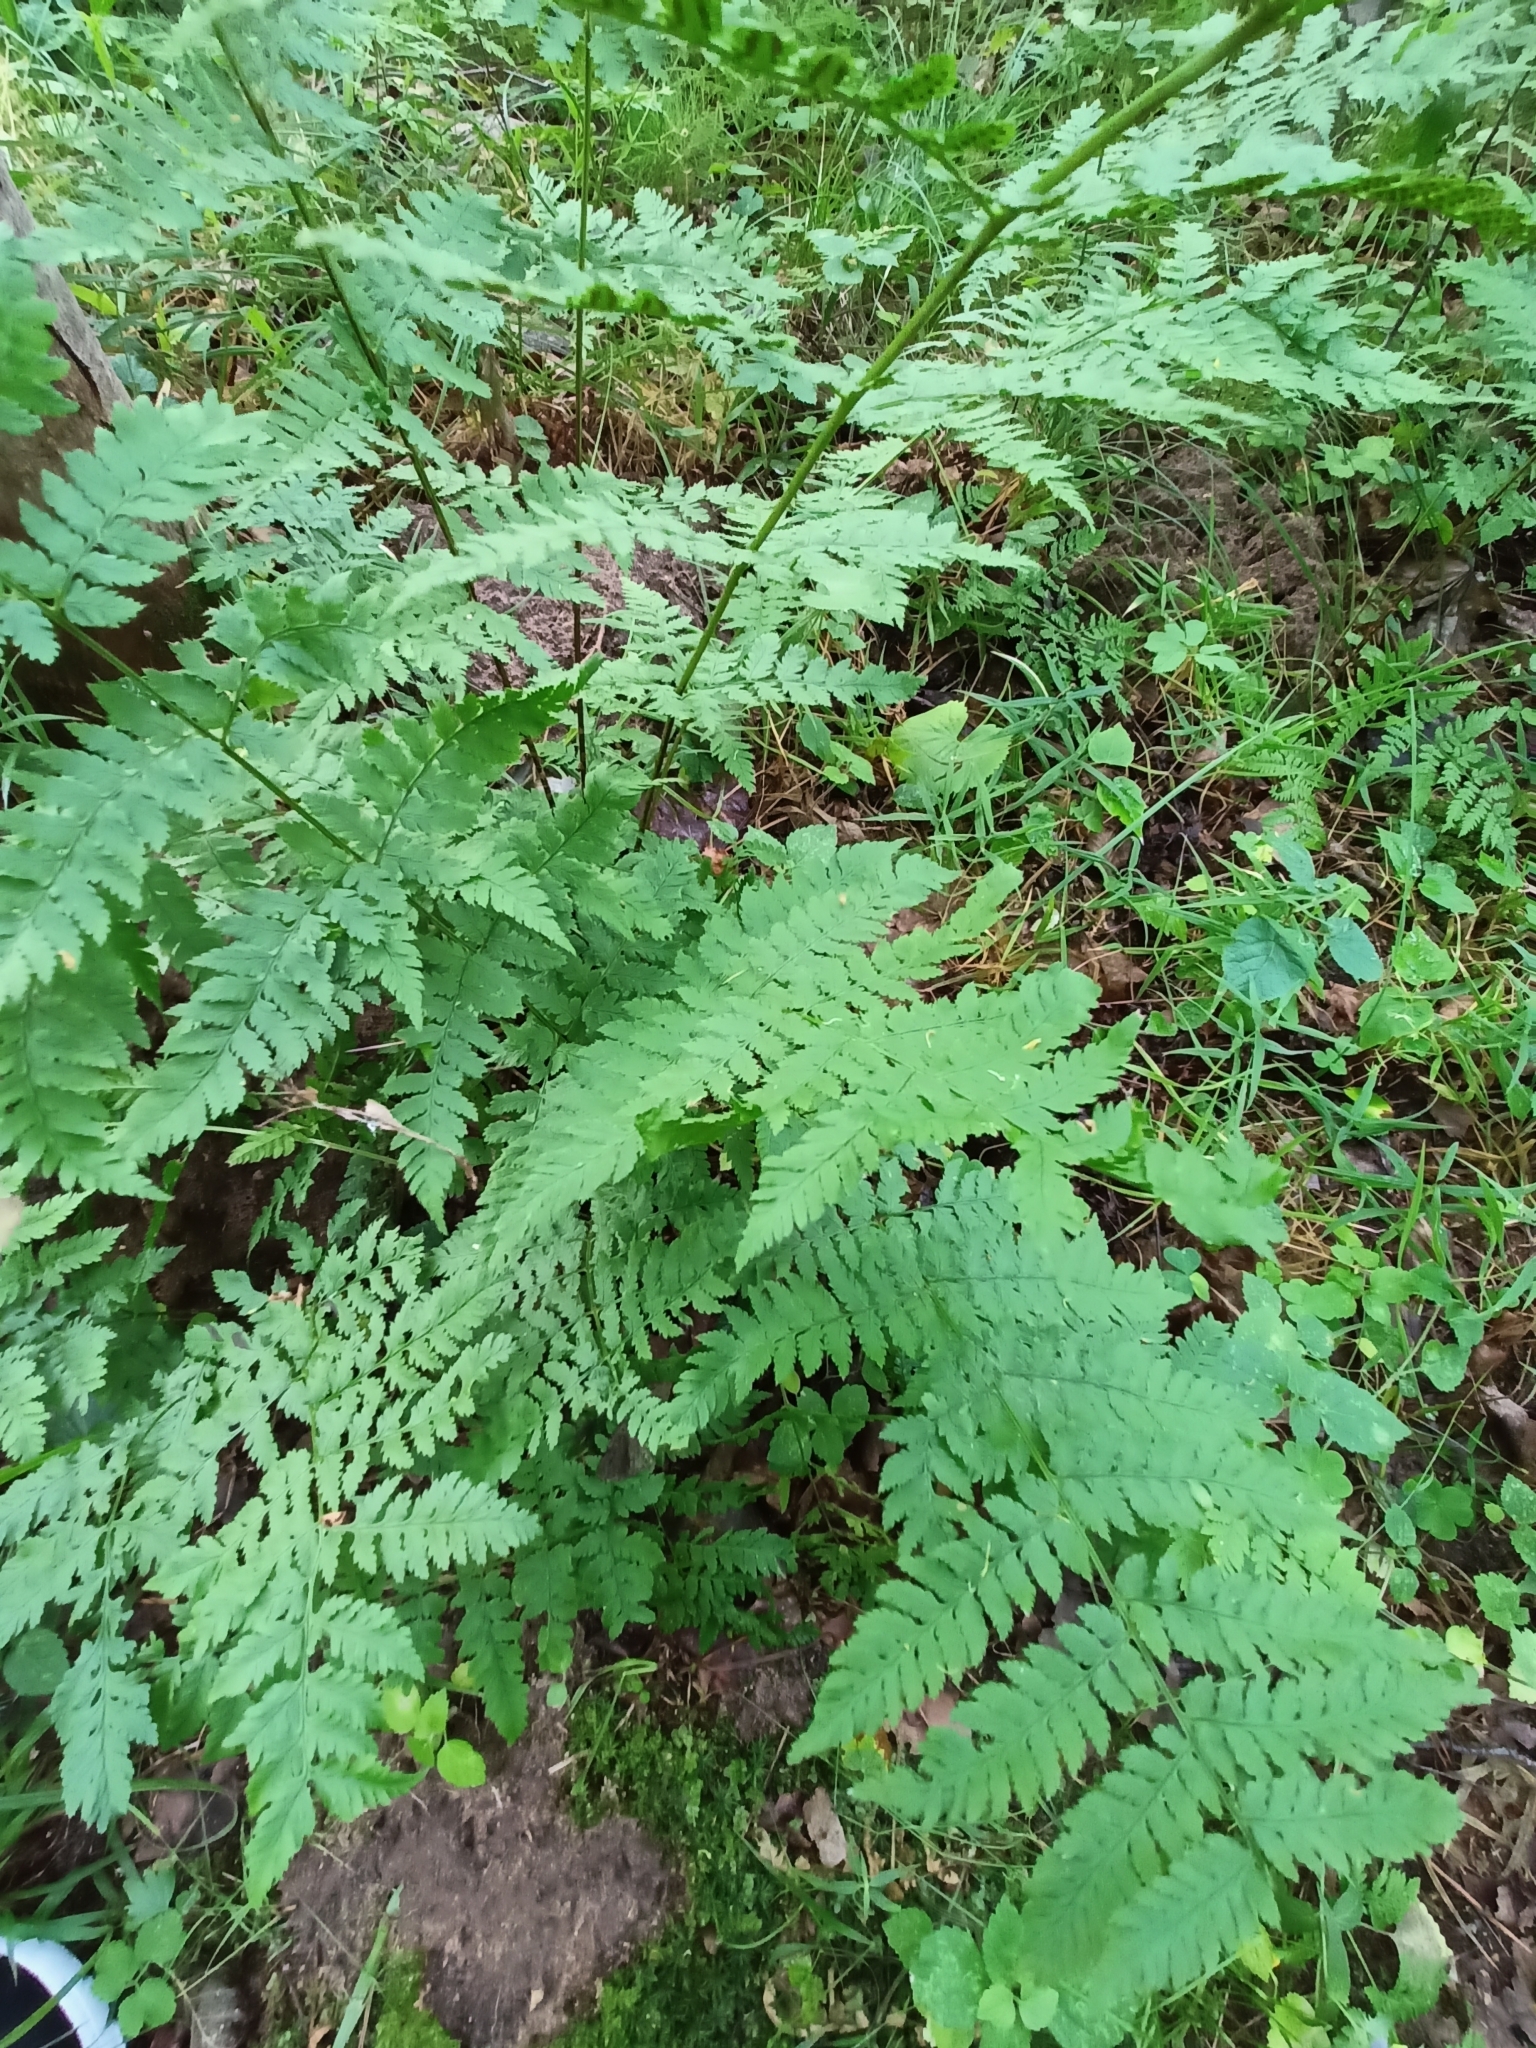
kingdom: Plantae
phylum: Tracheophyta
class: Polypodiopsida
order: Polypodiales
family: Dryopteridaceae
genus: Dryopteris
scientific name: Dryopteris carthusiana
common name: Narrow buckler-fern
